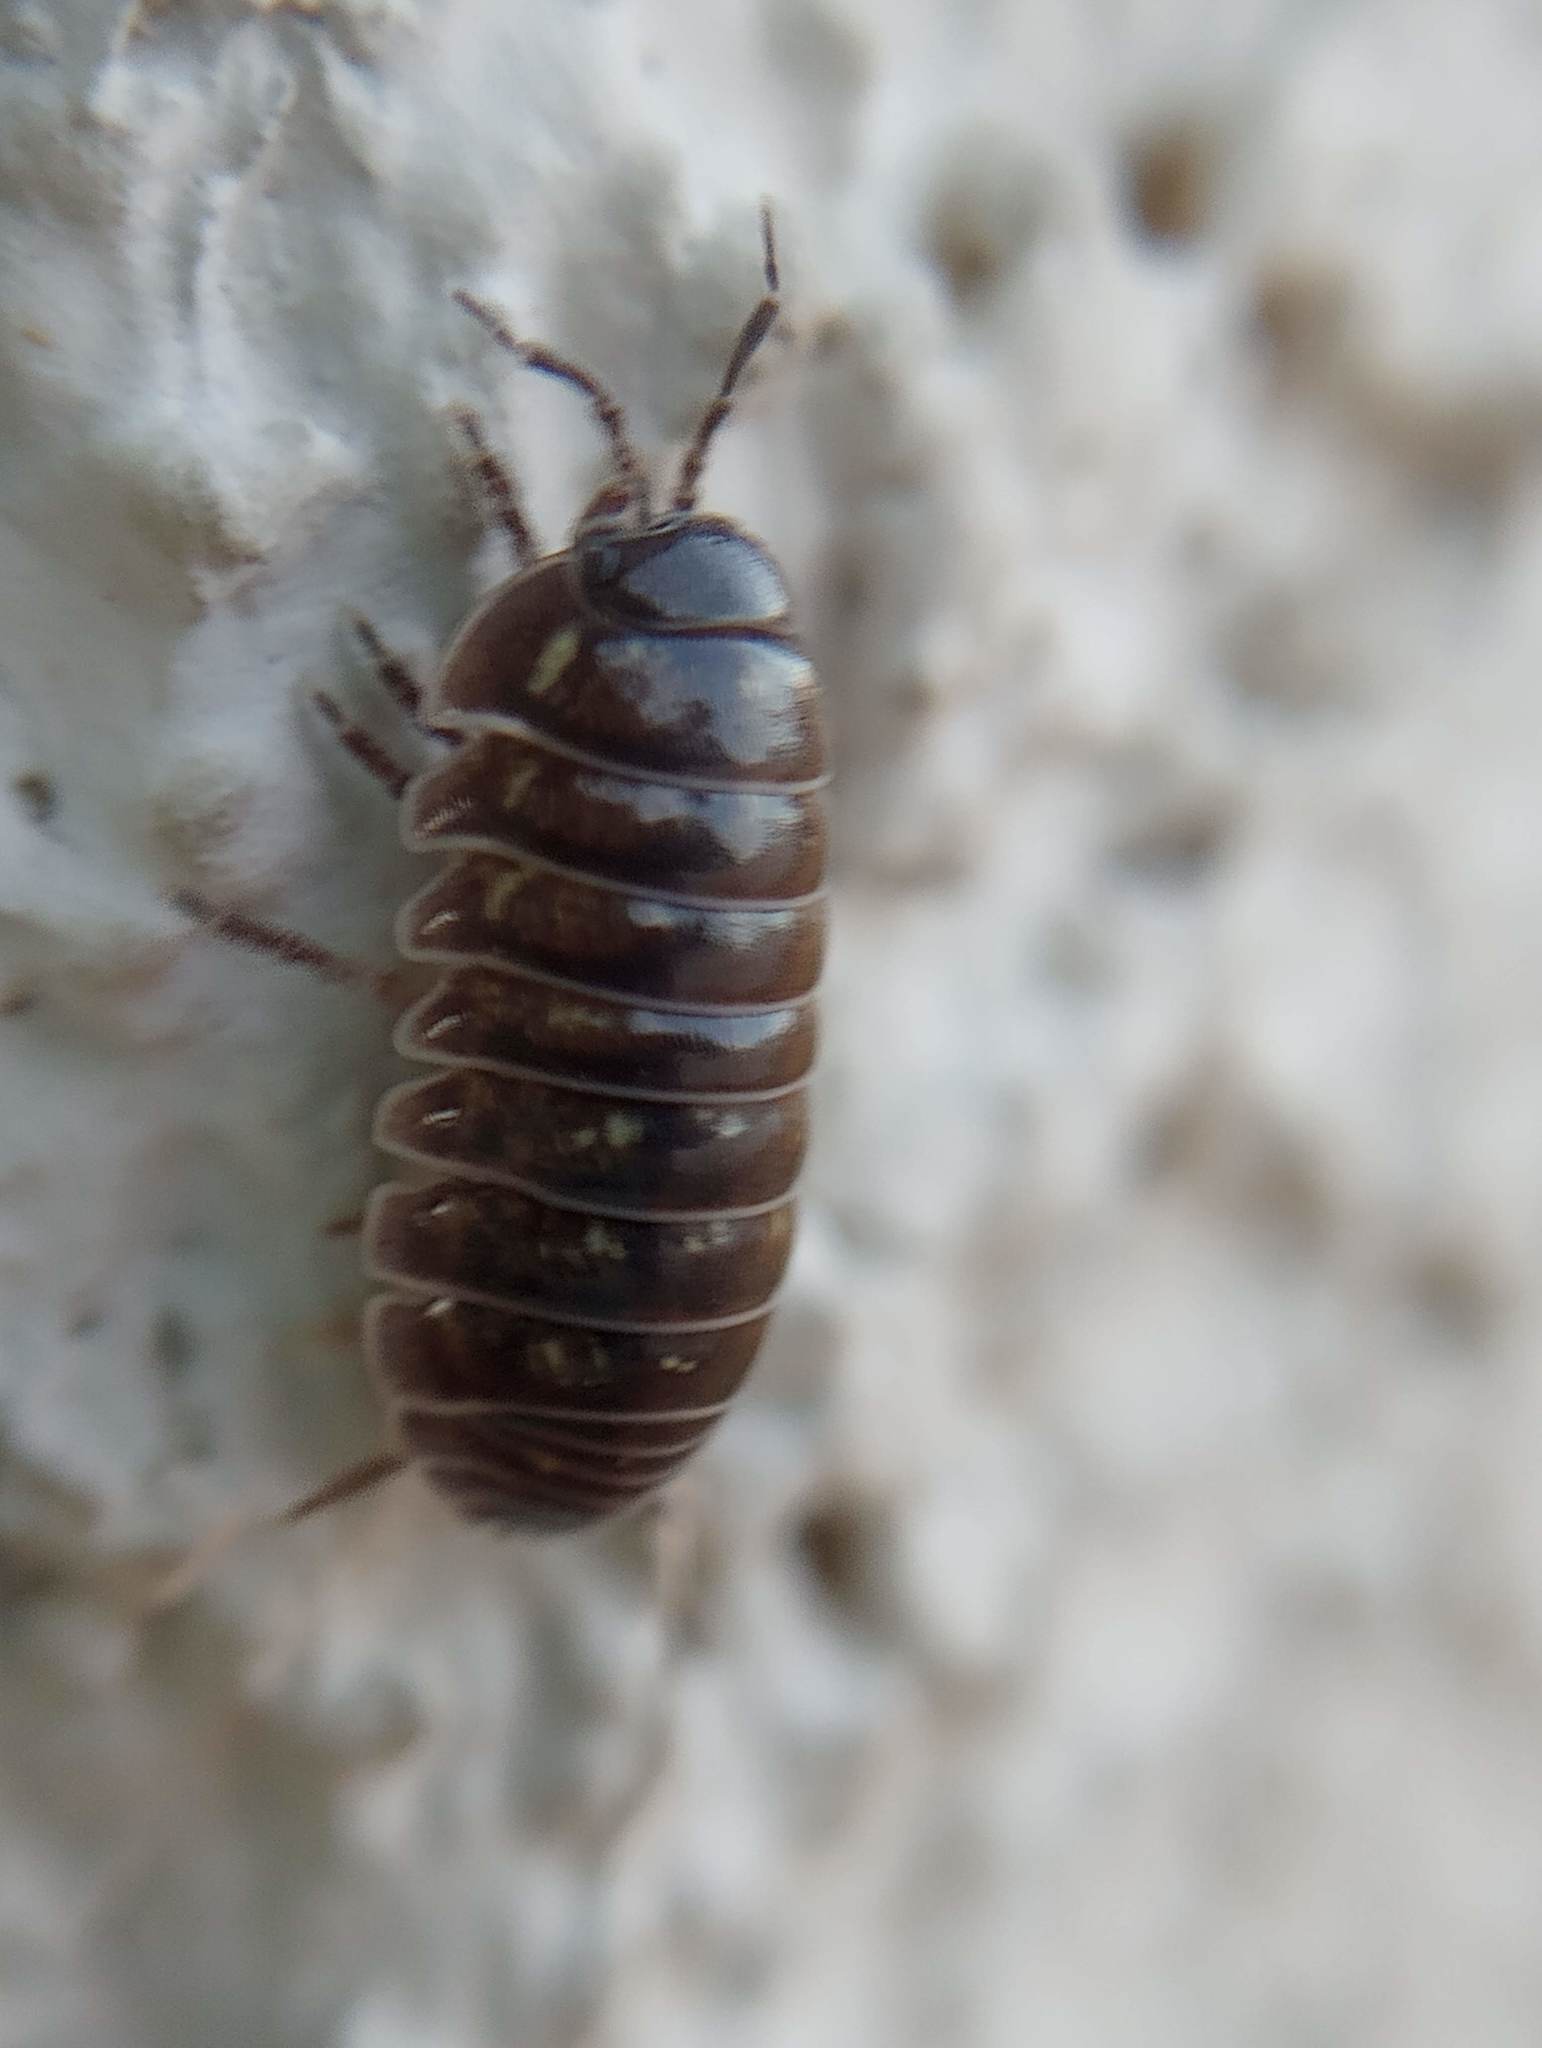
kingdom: Animalia
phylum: Arthropoda
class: Malacostraca
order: Isopoda
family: Armadillidiidae
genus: Armadillidium
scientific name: Armadillidium vulgare
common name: Common pill woodlouse
